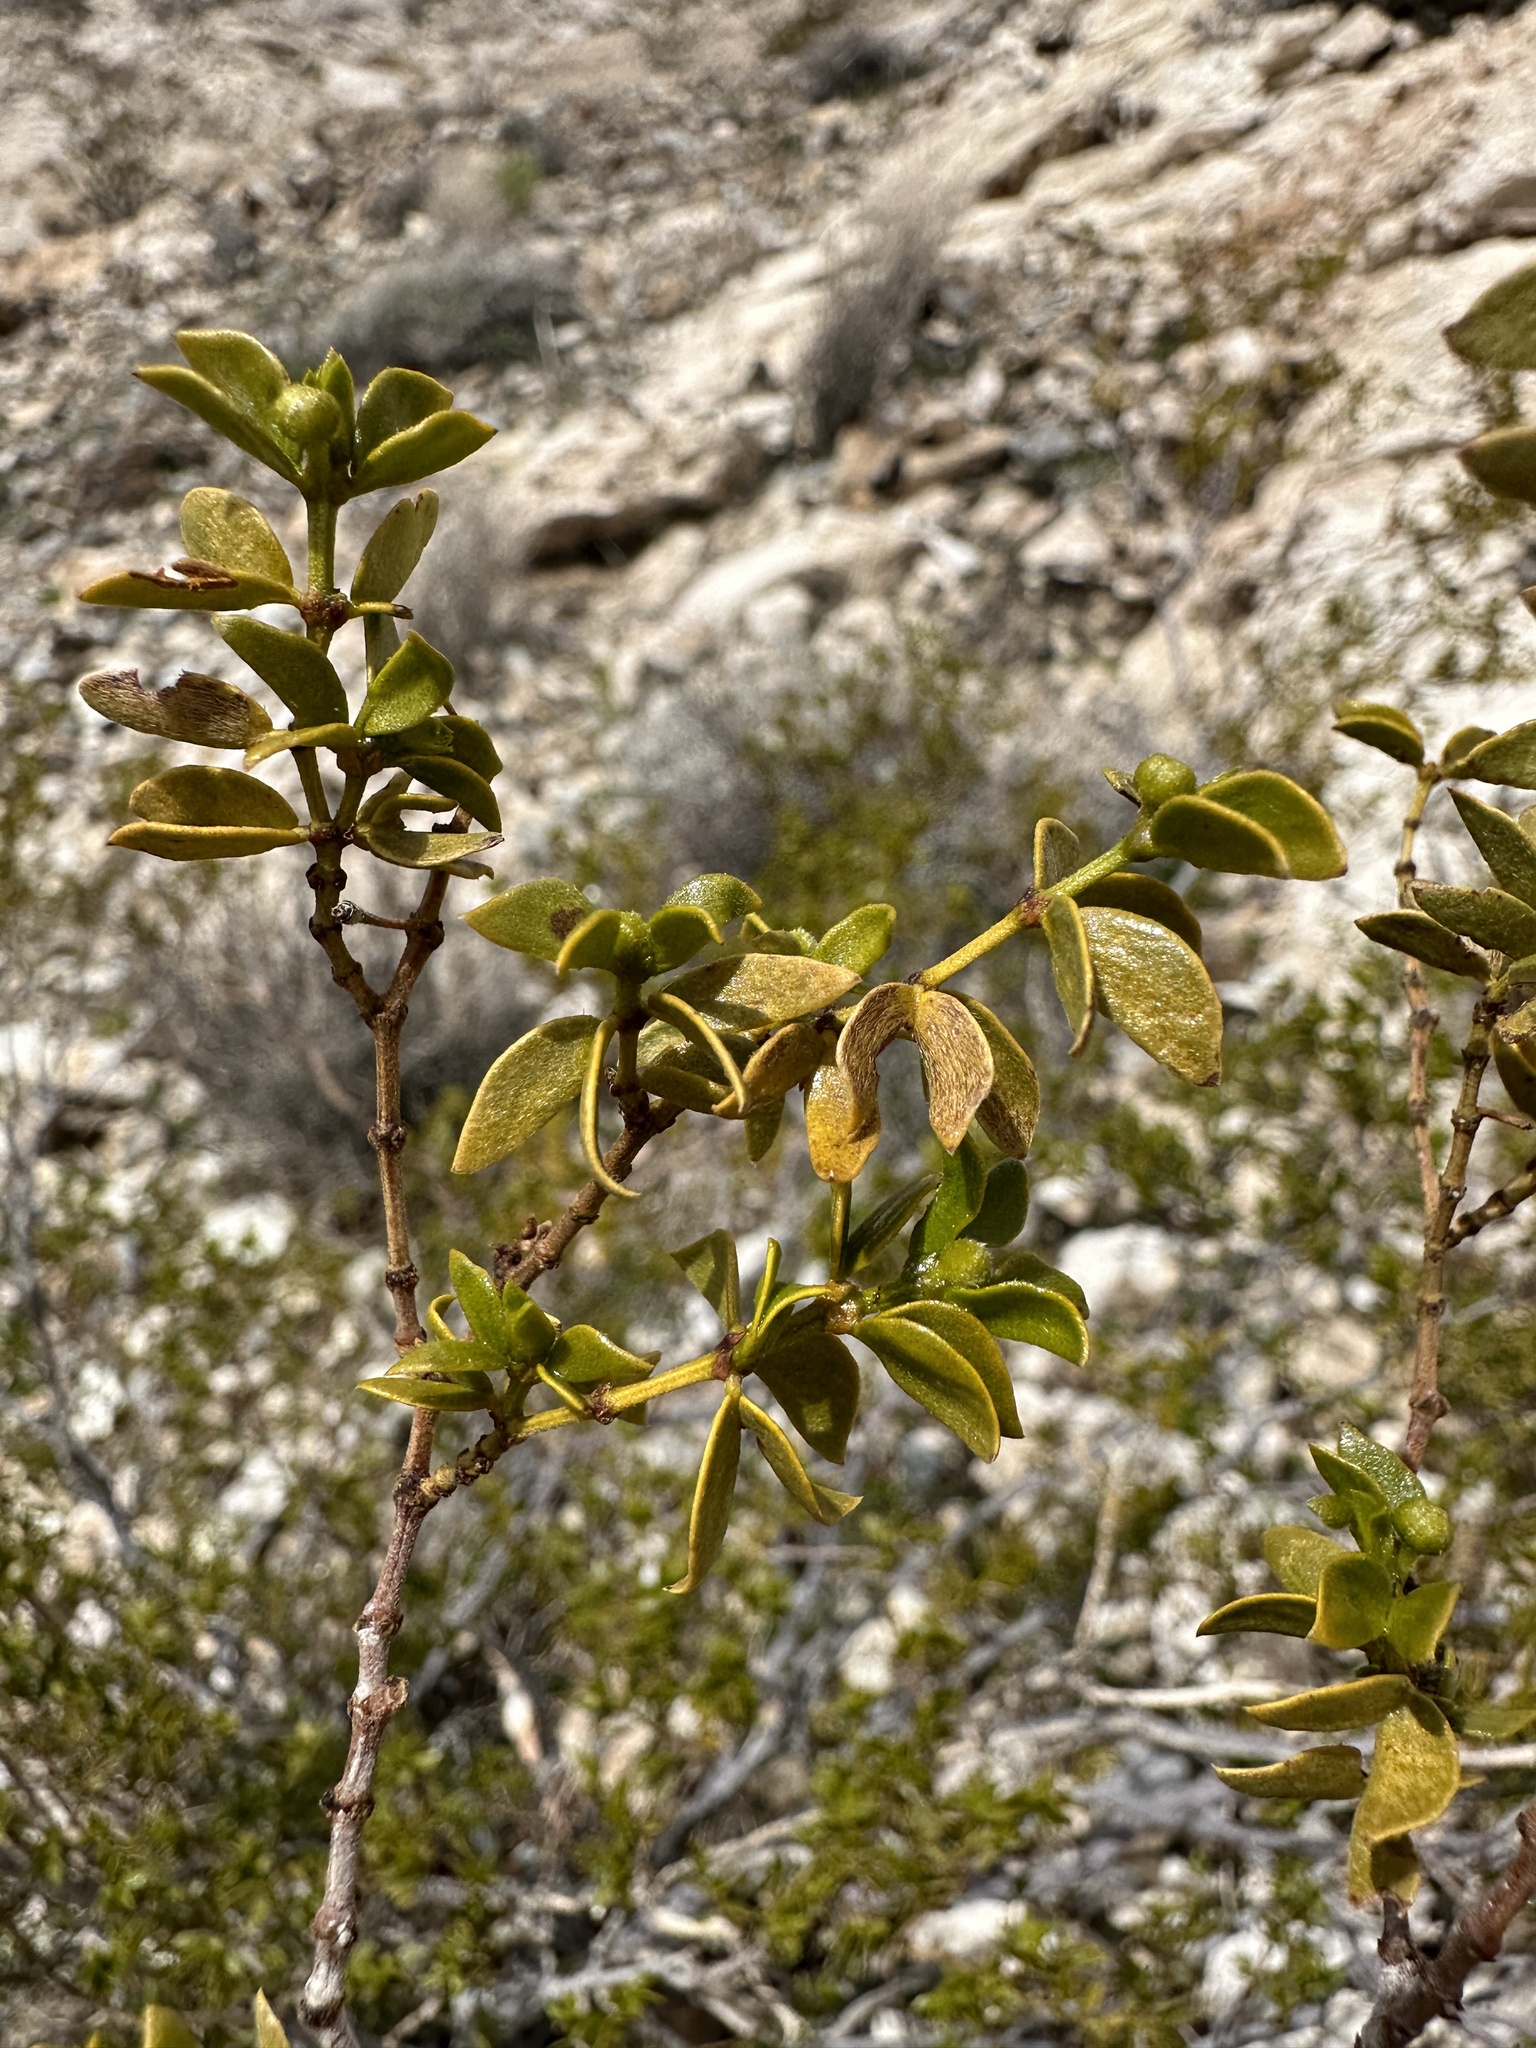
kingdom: Plantae
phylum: Tracheophyta
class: Magnoliopsida
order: Zygophyllales
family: Zygophyllaceae
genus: Larrea
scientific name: Larrea tridentata
